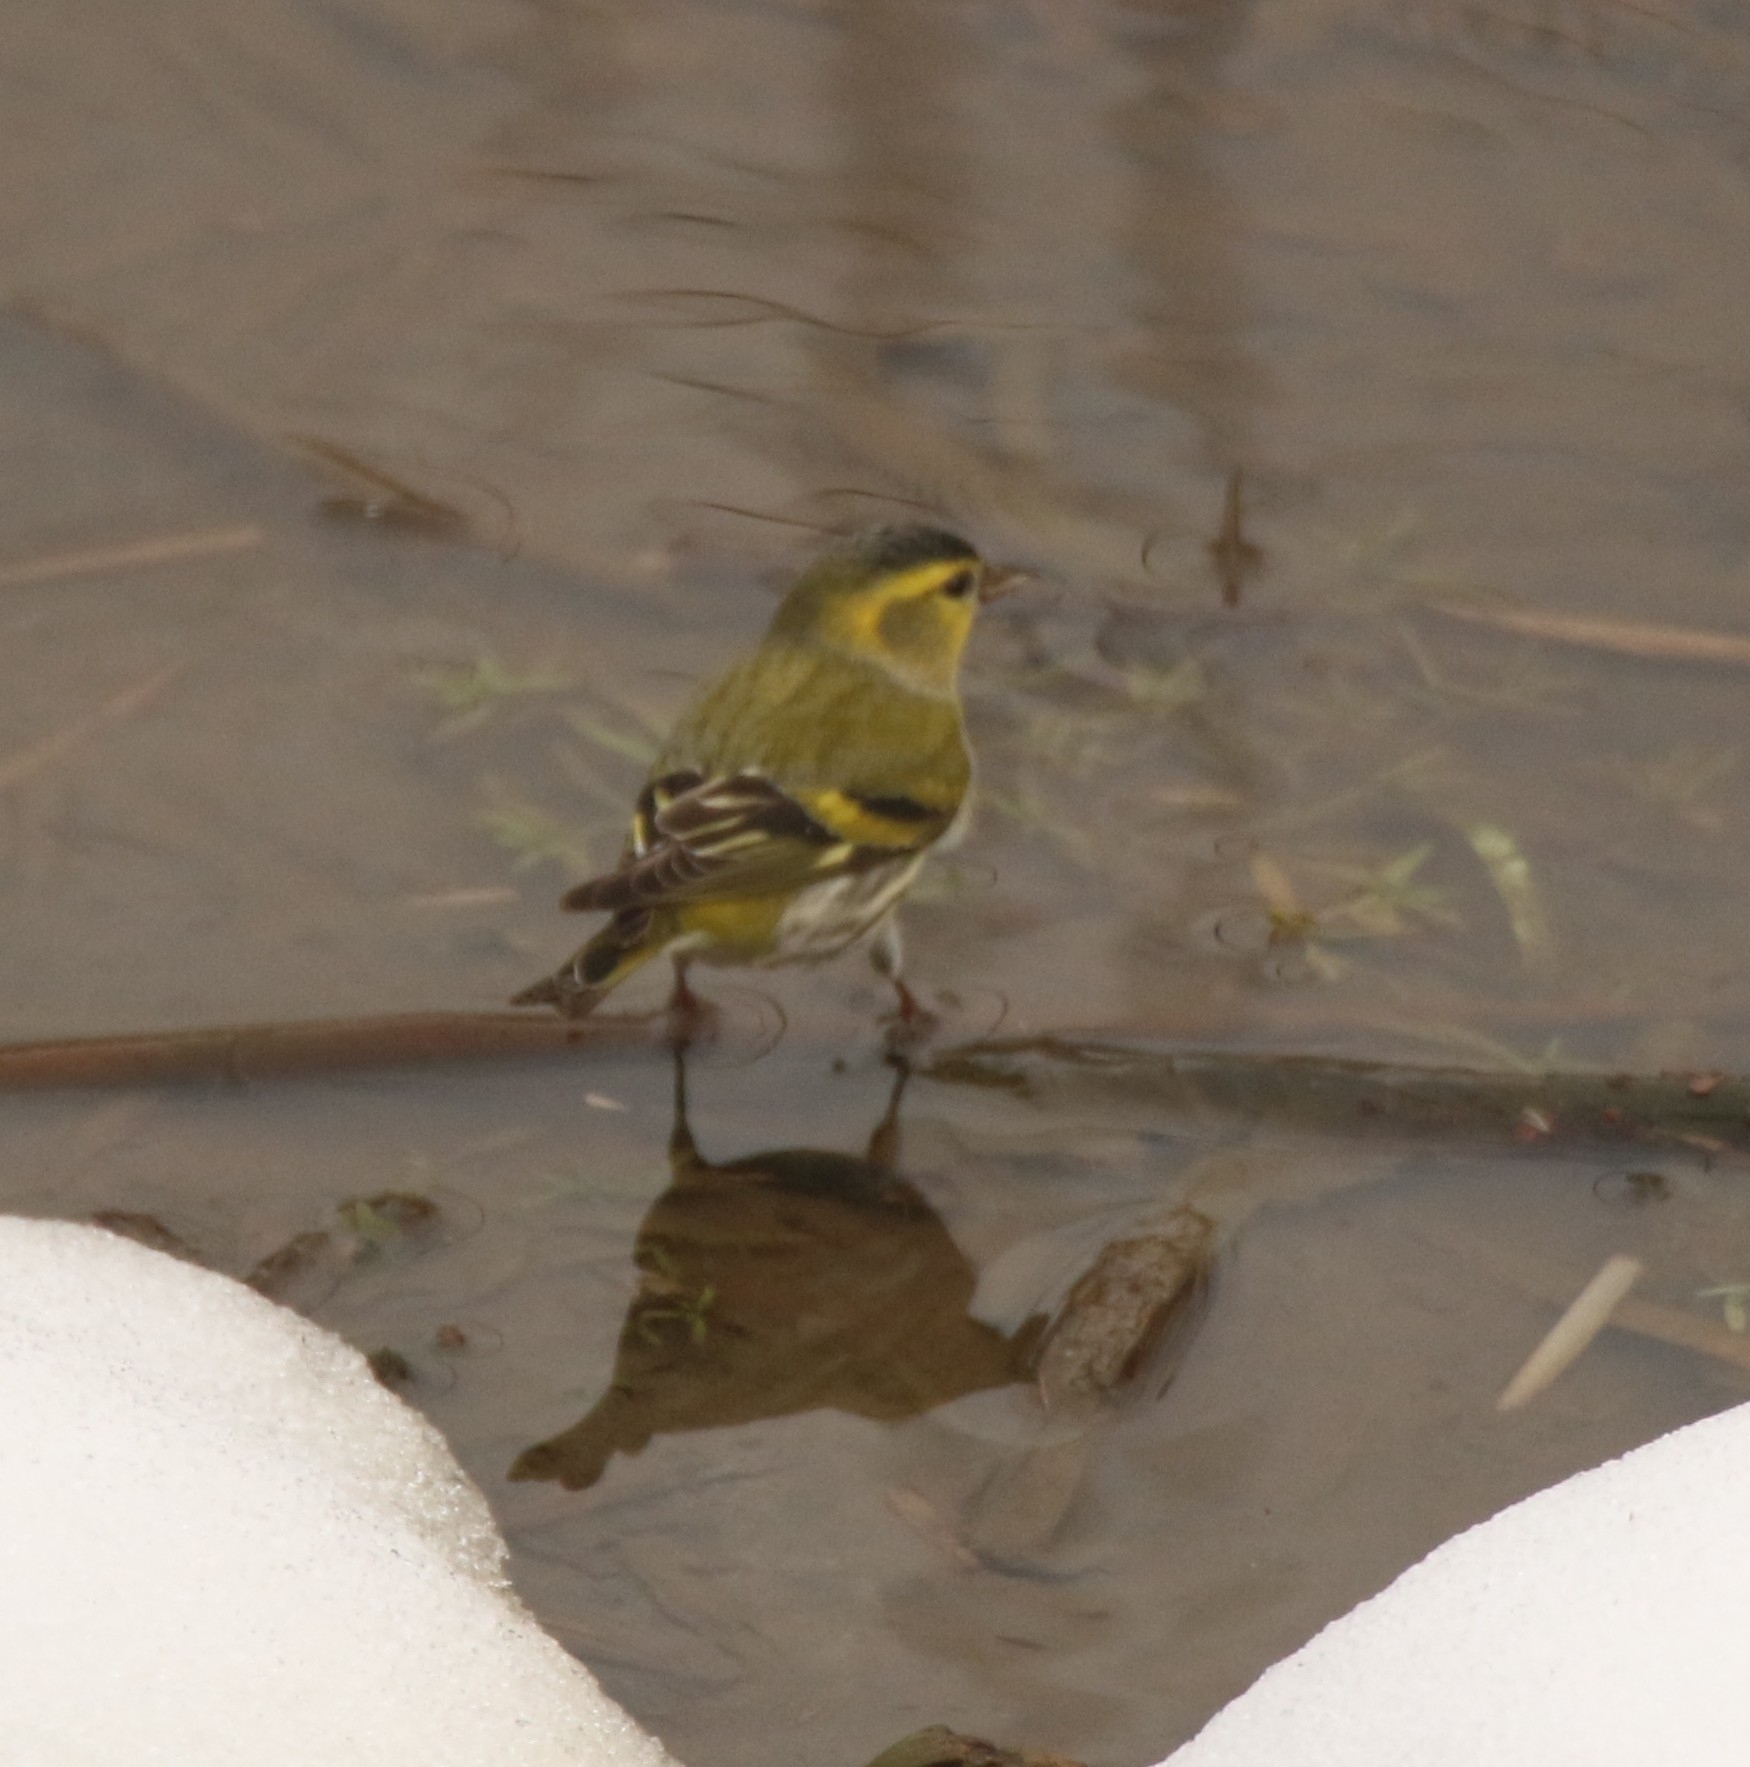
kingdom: Animalia
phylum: Chordata
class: Aves
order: Passeriformes
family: Fringillidae
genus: Spinus
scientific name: Spinus spinus
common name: Eurasian siskin
